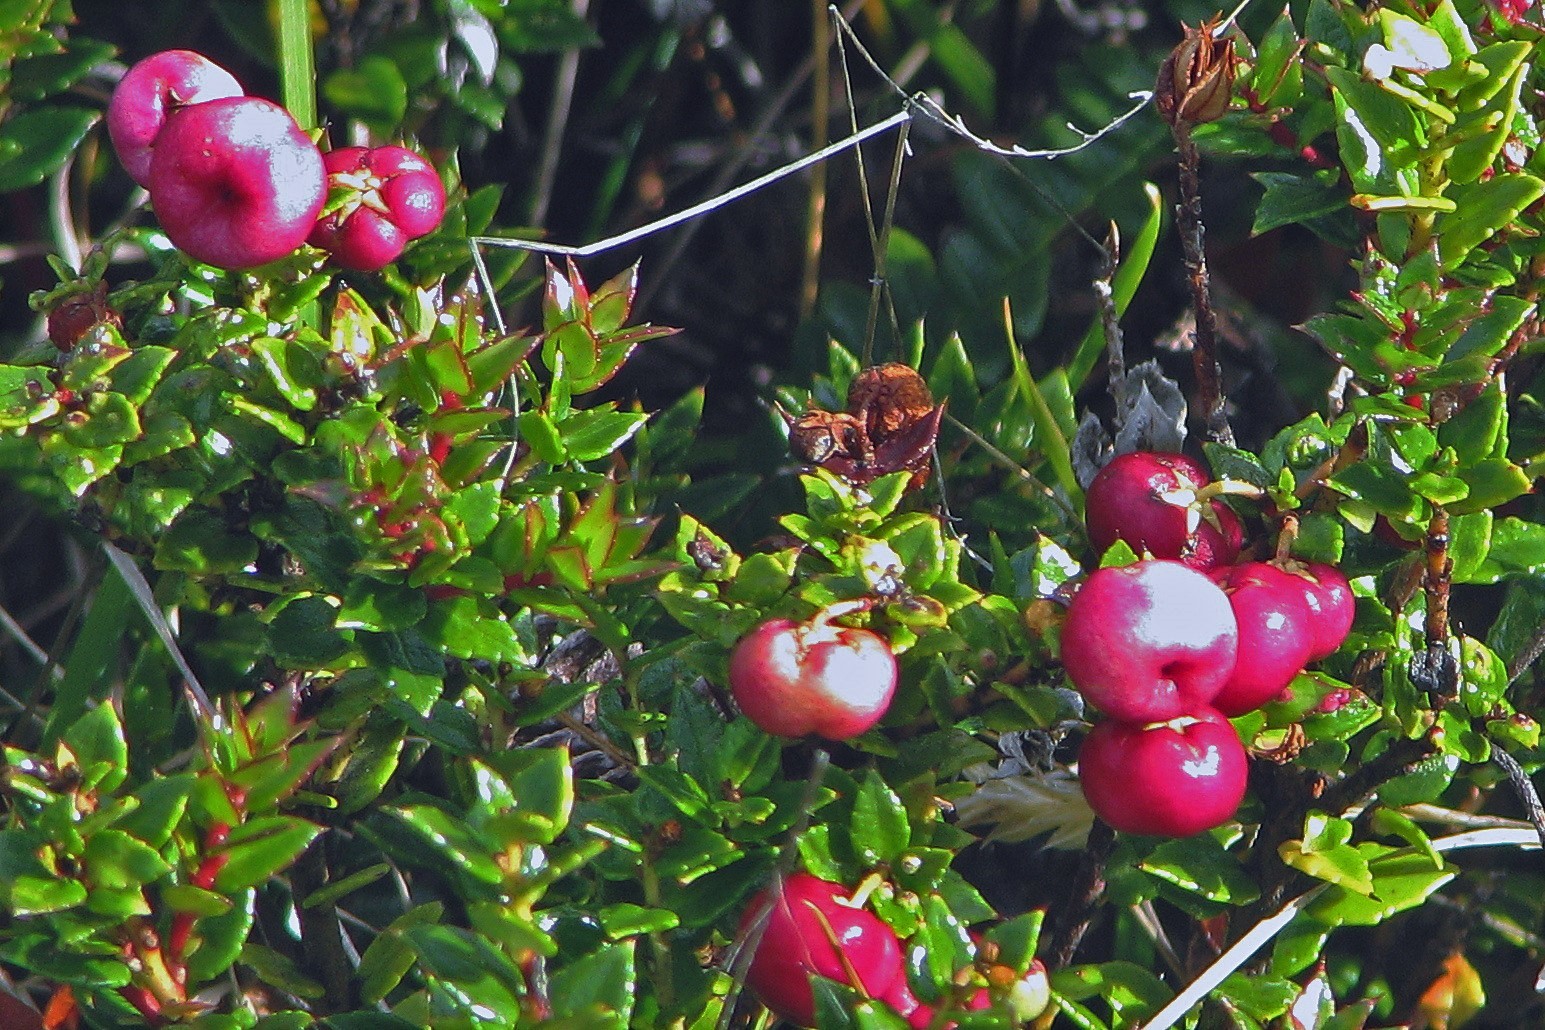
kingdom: Plantae
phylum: Tracheophyta
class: Magnoliopsida
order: Ericales
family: Ericaceae
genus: Gaultheria
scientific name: Gaultheria mucronata
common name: Prickly heath
